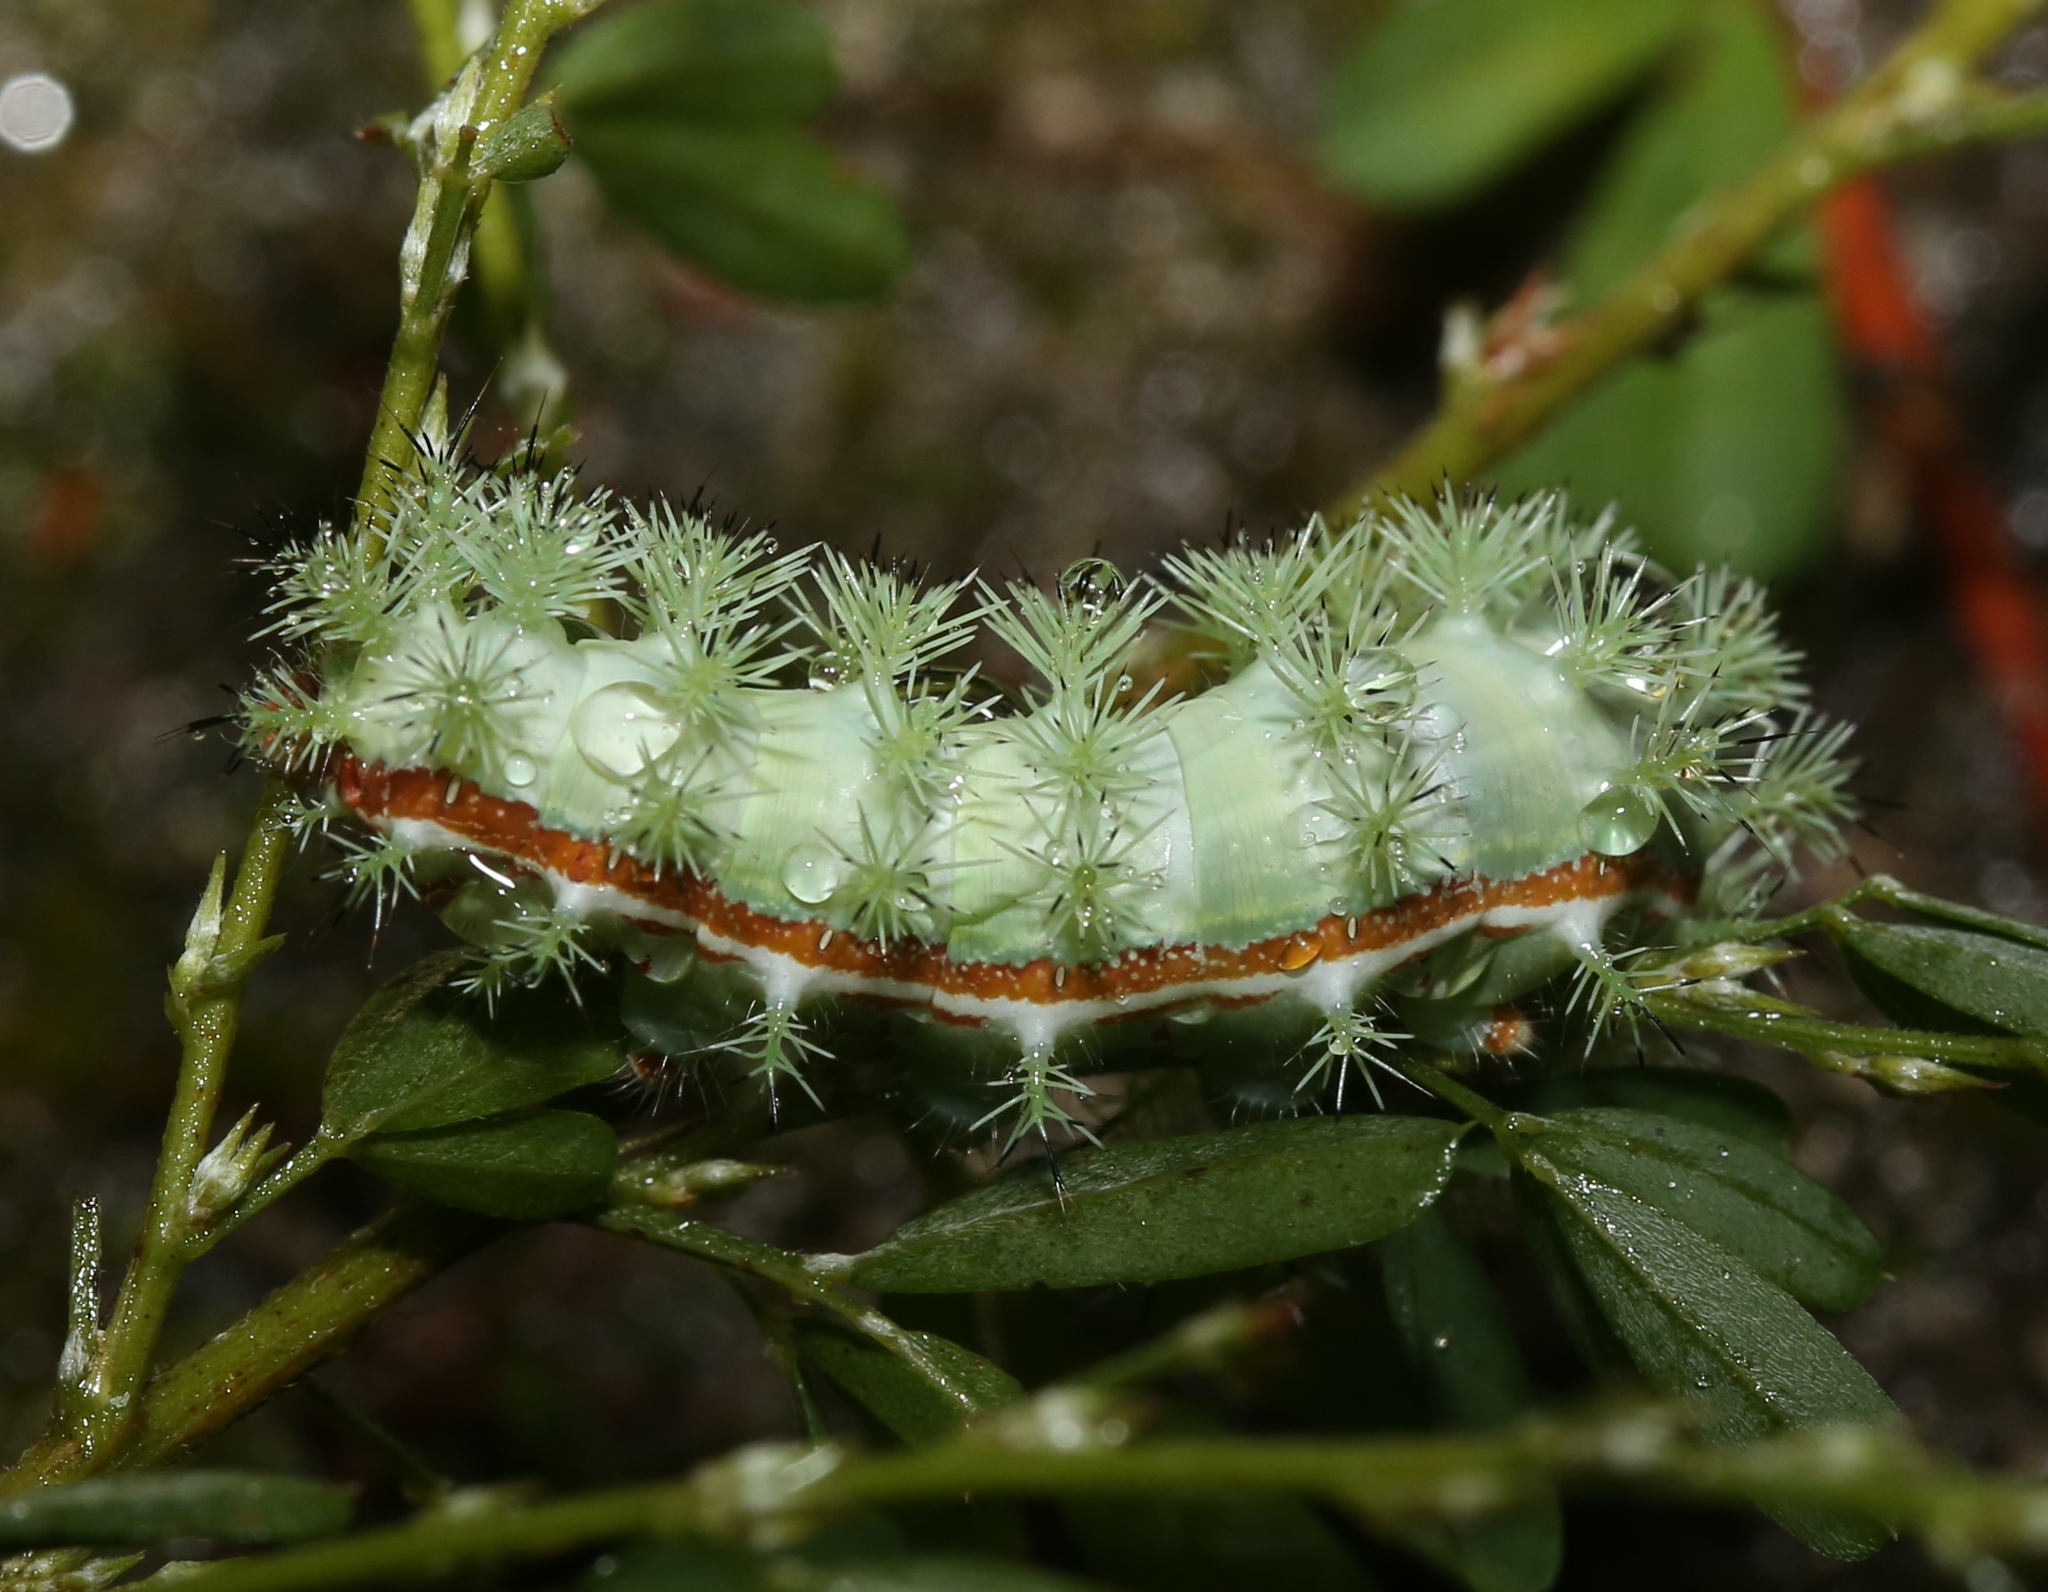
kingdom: Animalia
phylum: Arthropoda
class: Insecta
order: Lepidoptera
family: Saturniidae
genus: Automeris
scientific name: Automeris io
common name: Io moth
